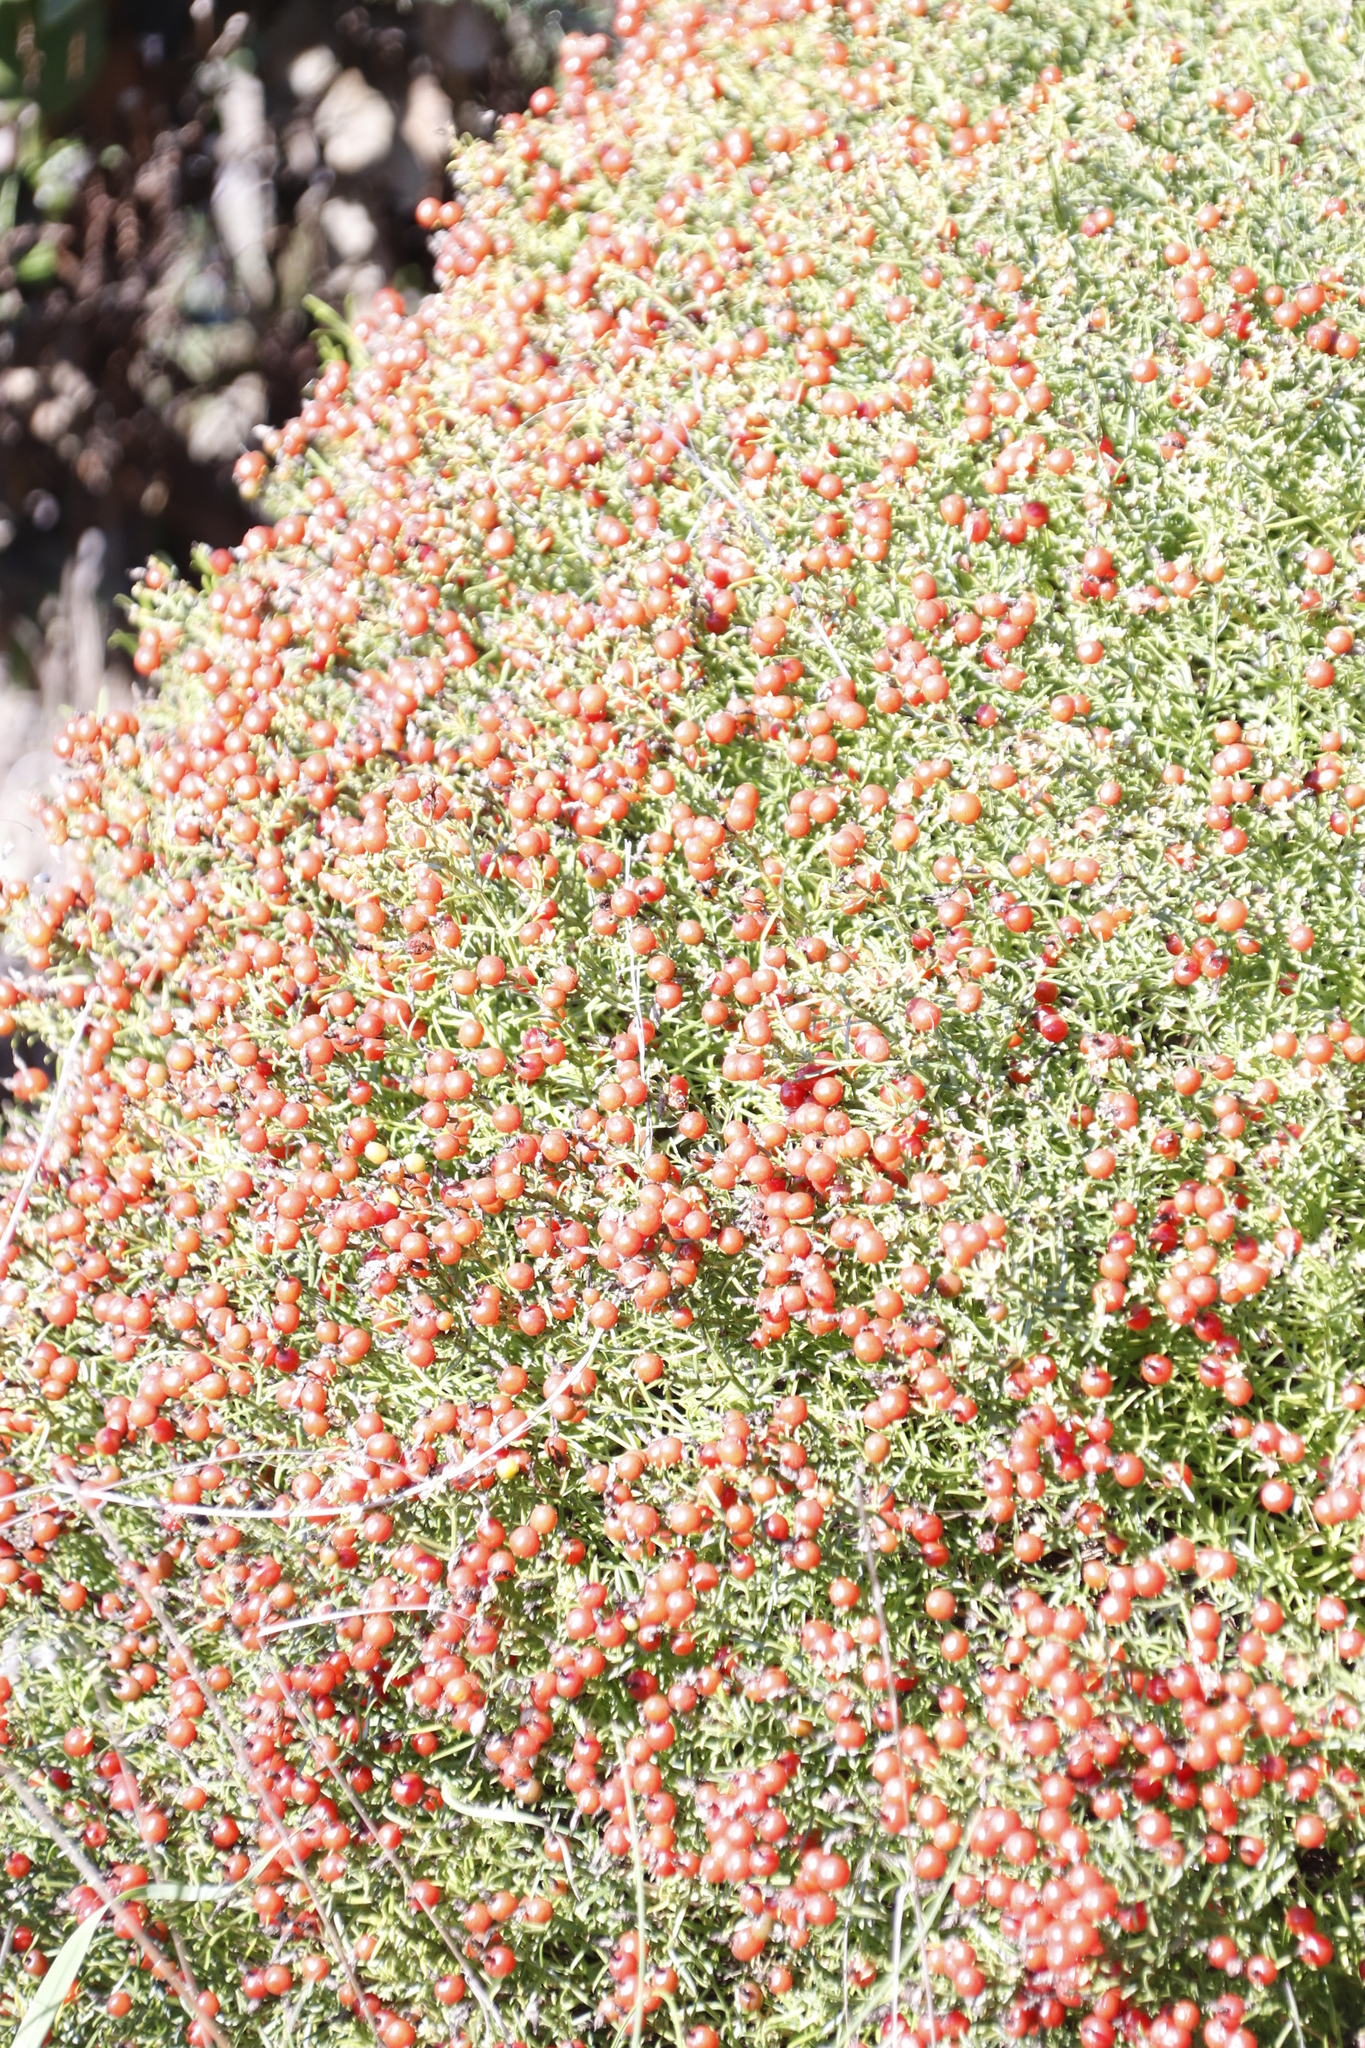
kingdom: Plantae
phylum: Tracheophyta
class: Magnoliopsida
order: Gentianales
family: Gentianaceae
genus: Chironia
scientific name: Chironia baccifera
